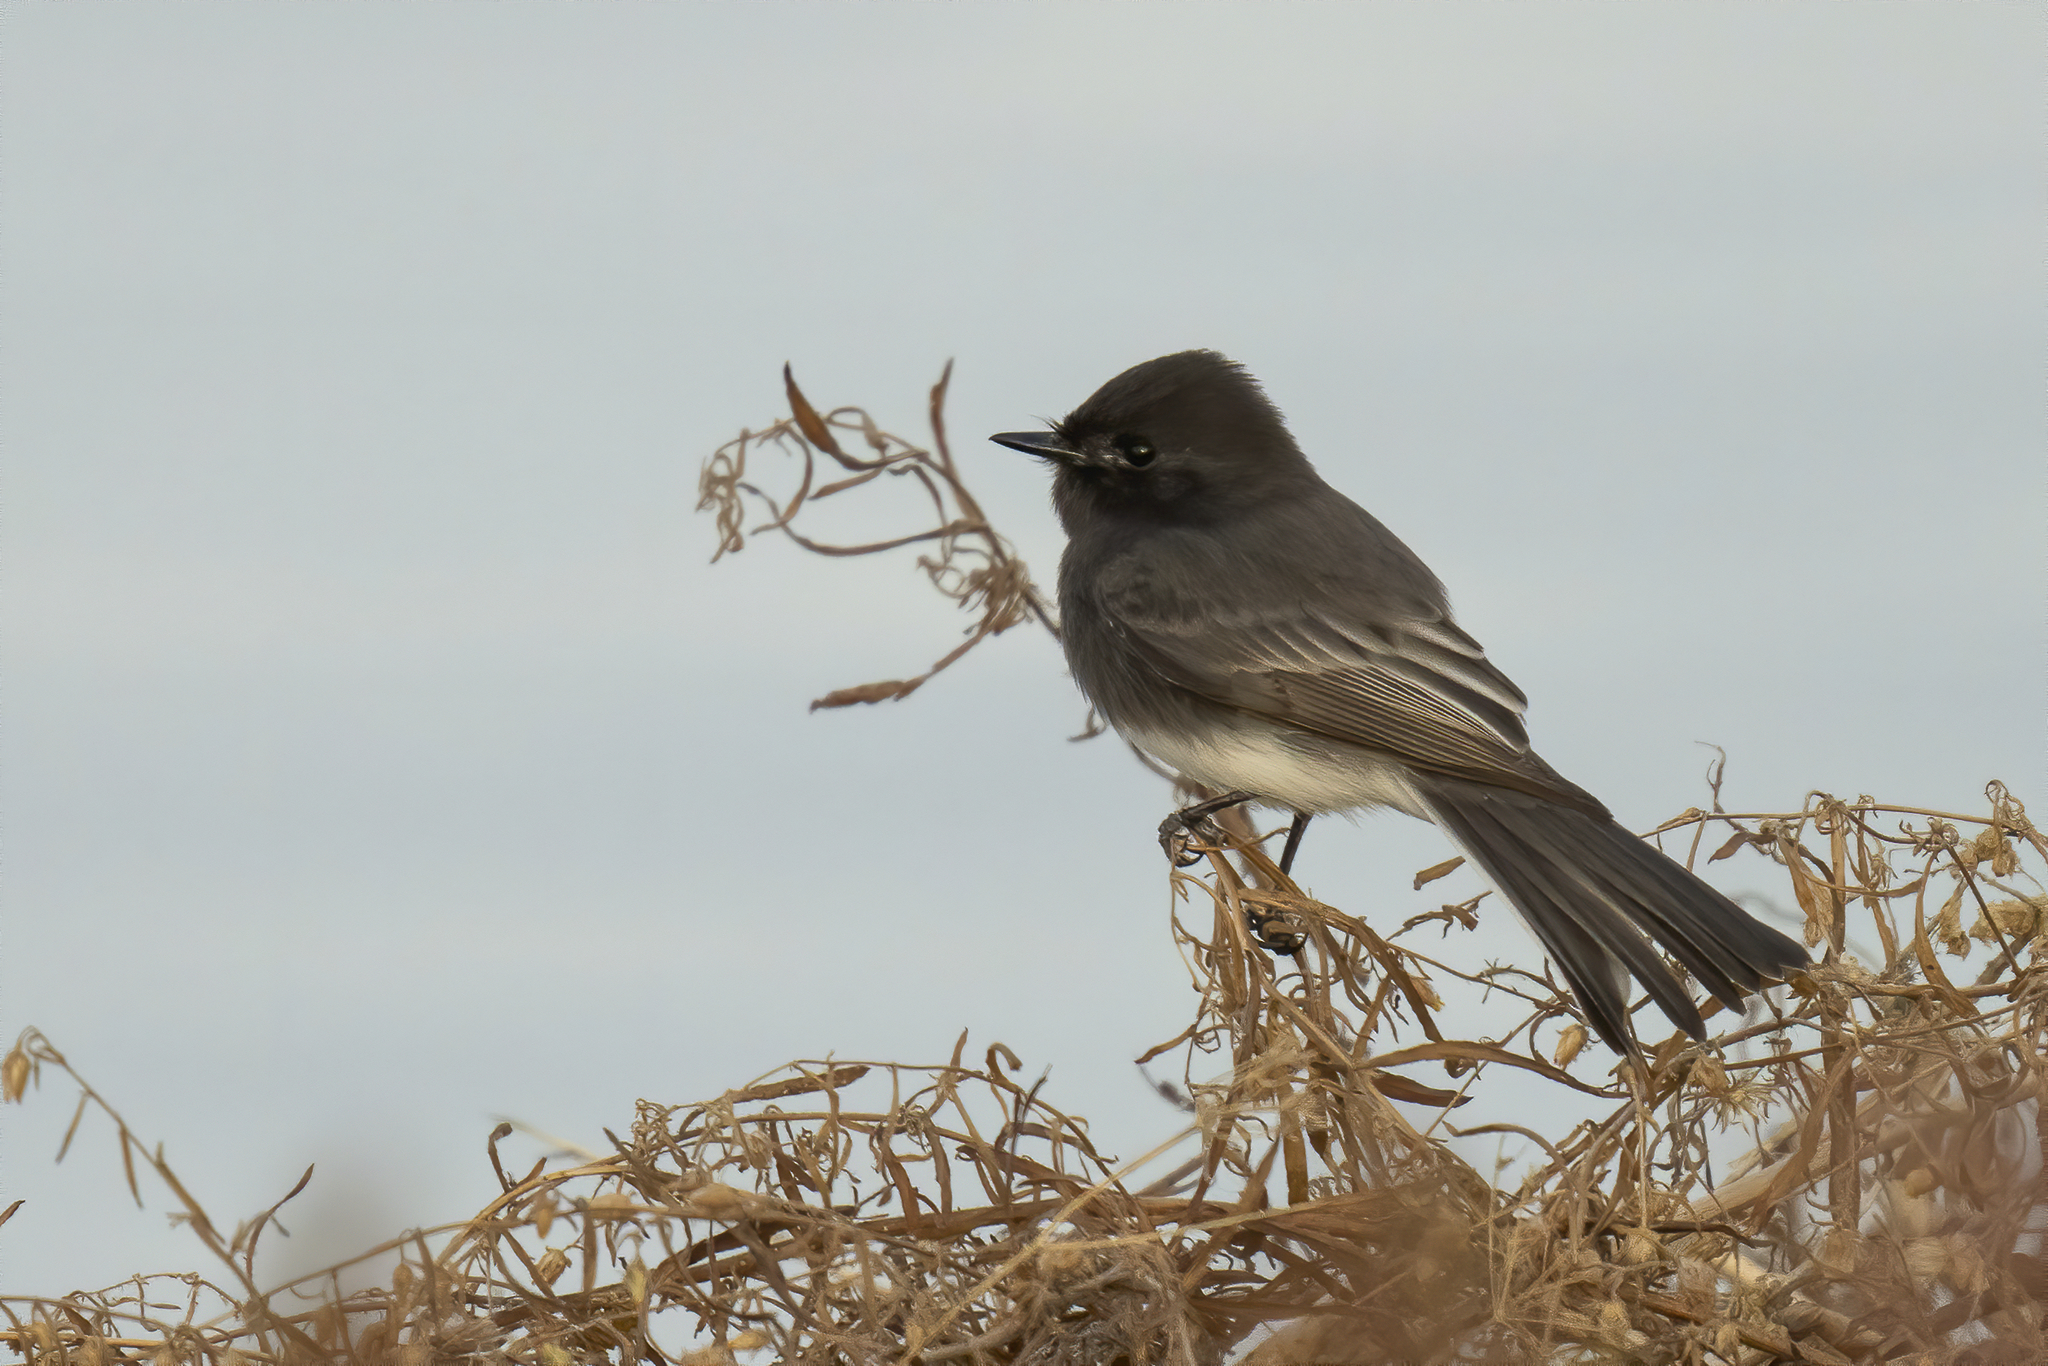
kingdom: Animalia
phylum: Chordata
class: Aves
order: Passeriformes
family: Tyrannidae
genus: Sayornis
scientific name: Sayornis nigricans
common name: Black phoebe
